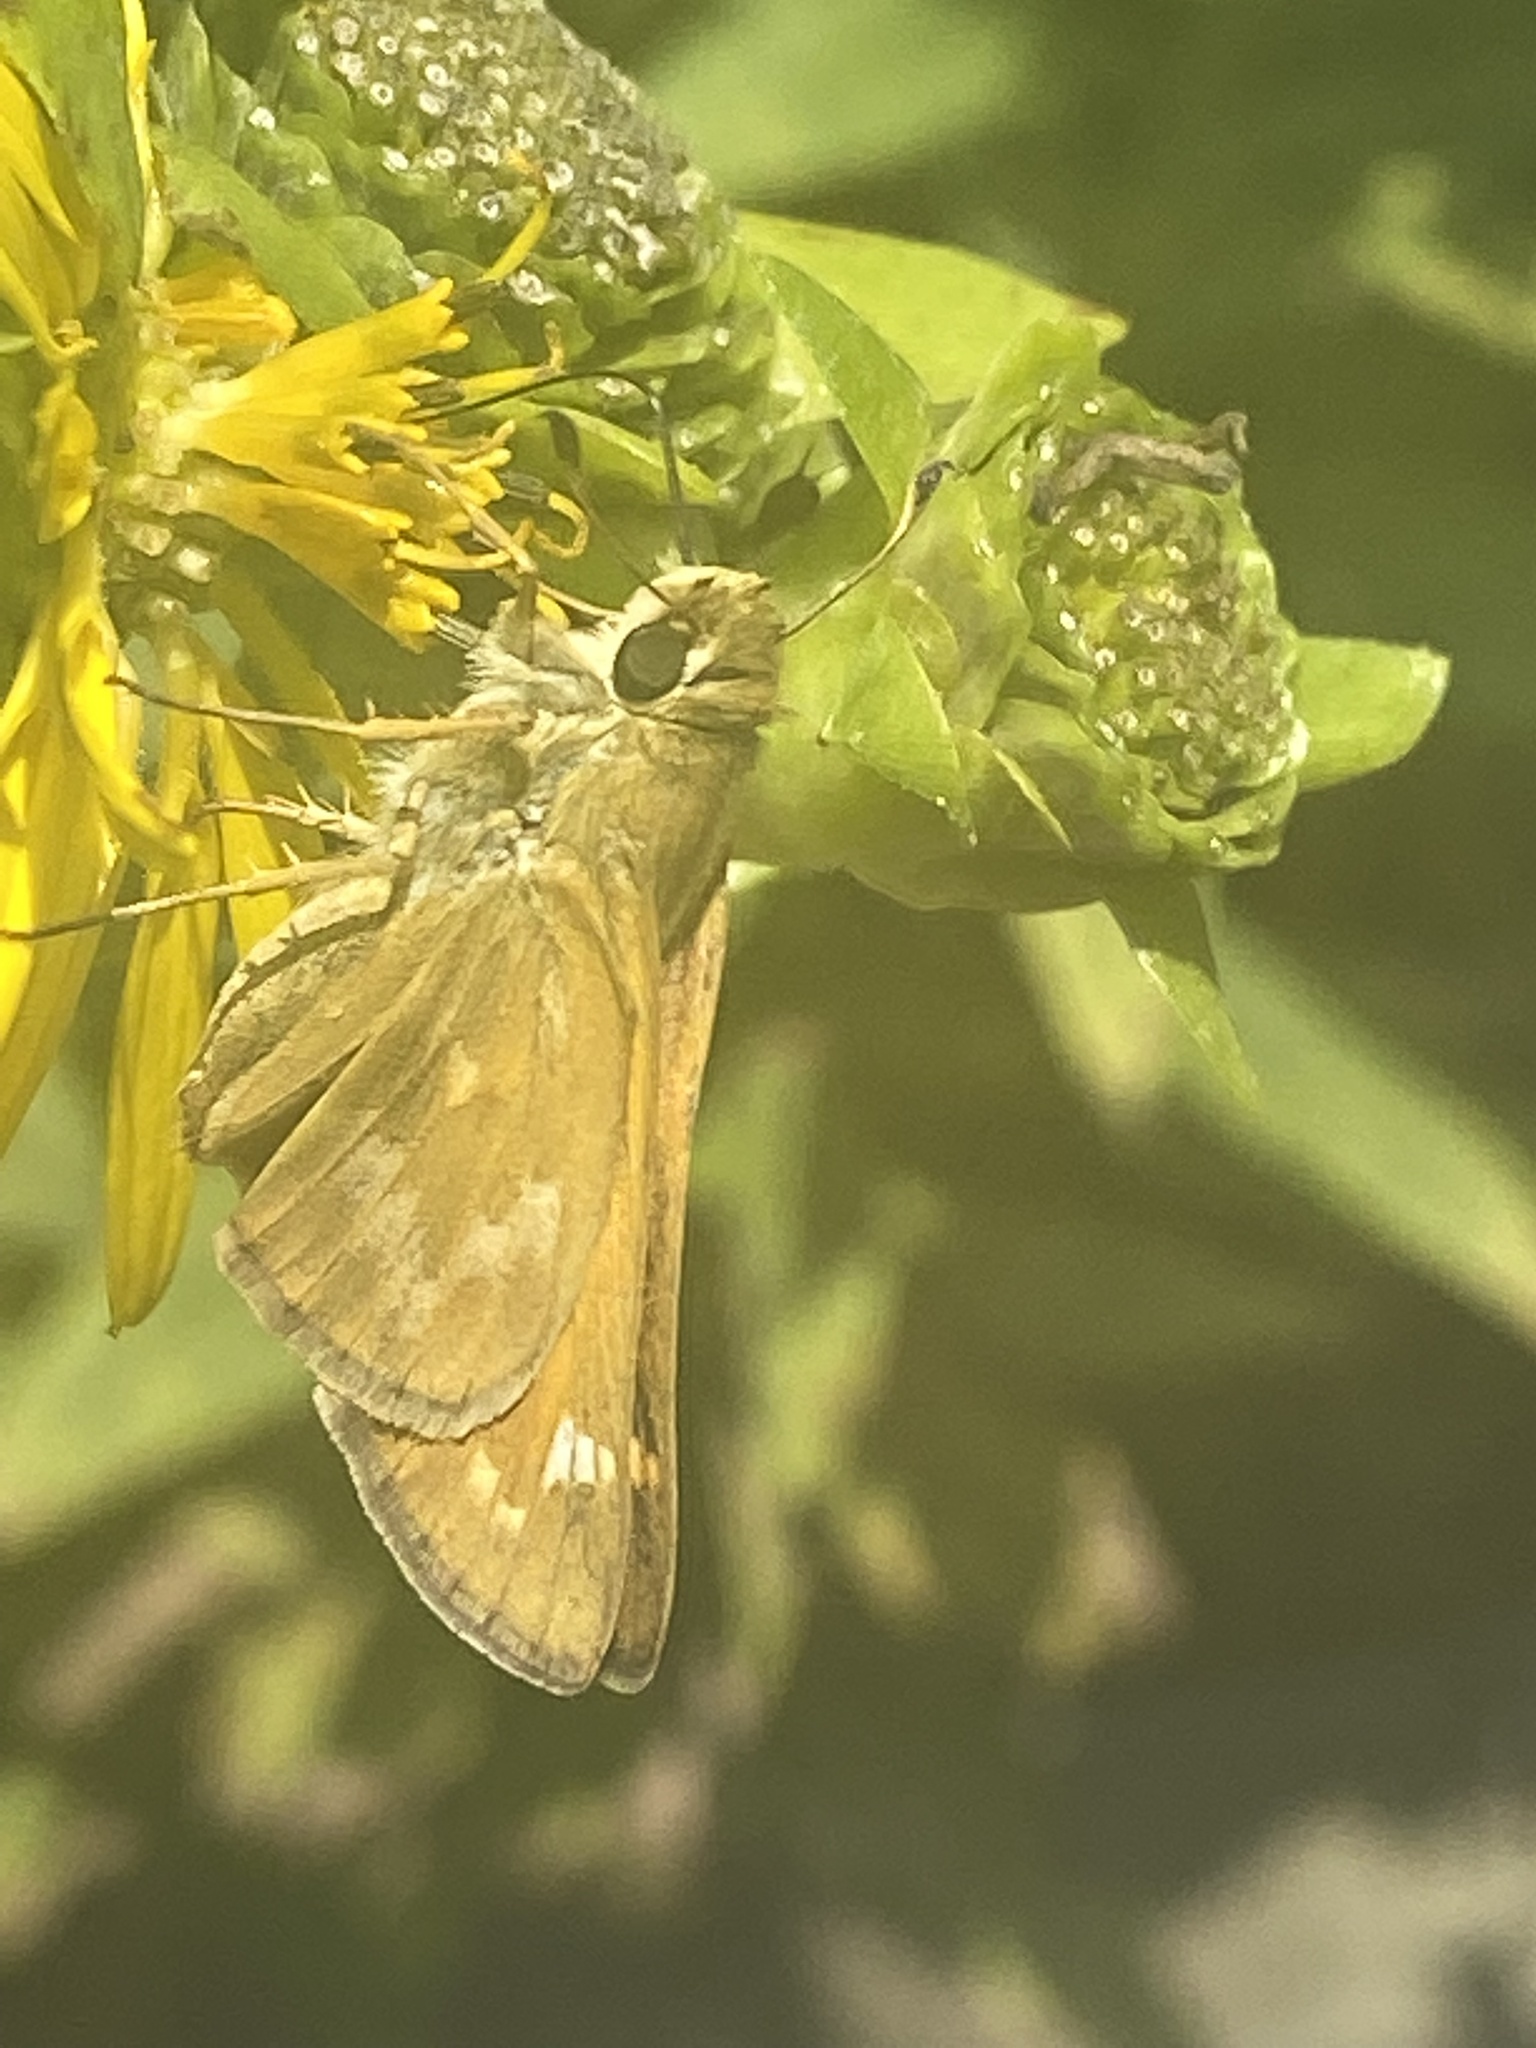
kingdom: Animalia
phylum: Arthropoda
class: Insecta
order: Lepidoptera
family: Hesperiidae
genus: Atalopedes
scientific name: Atalopedes
